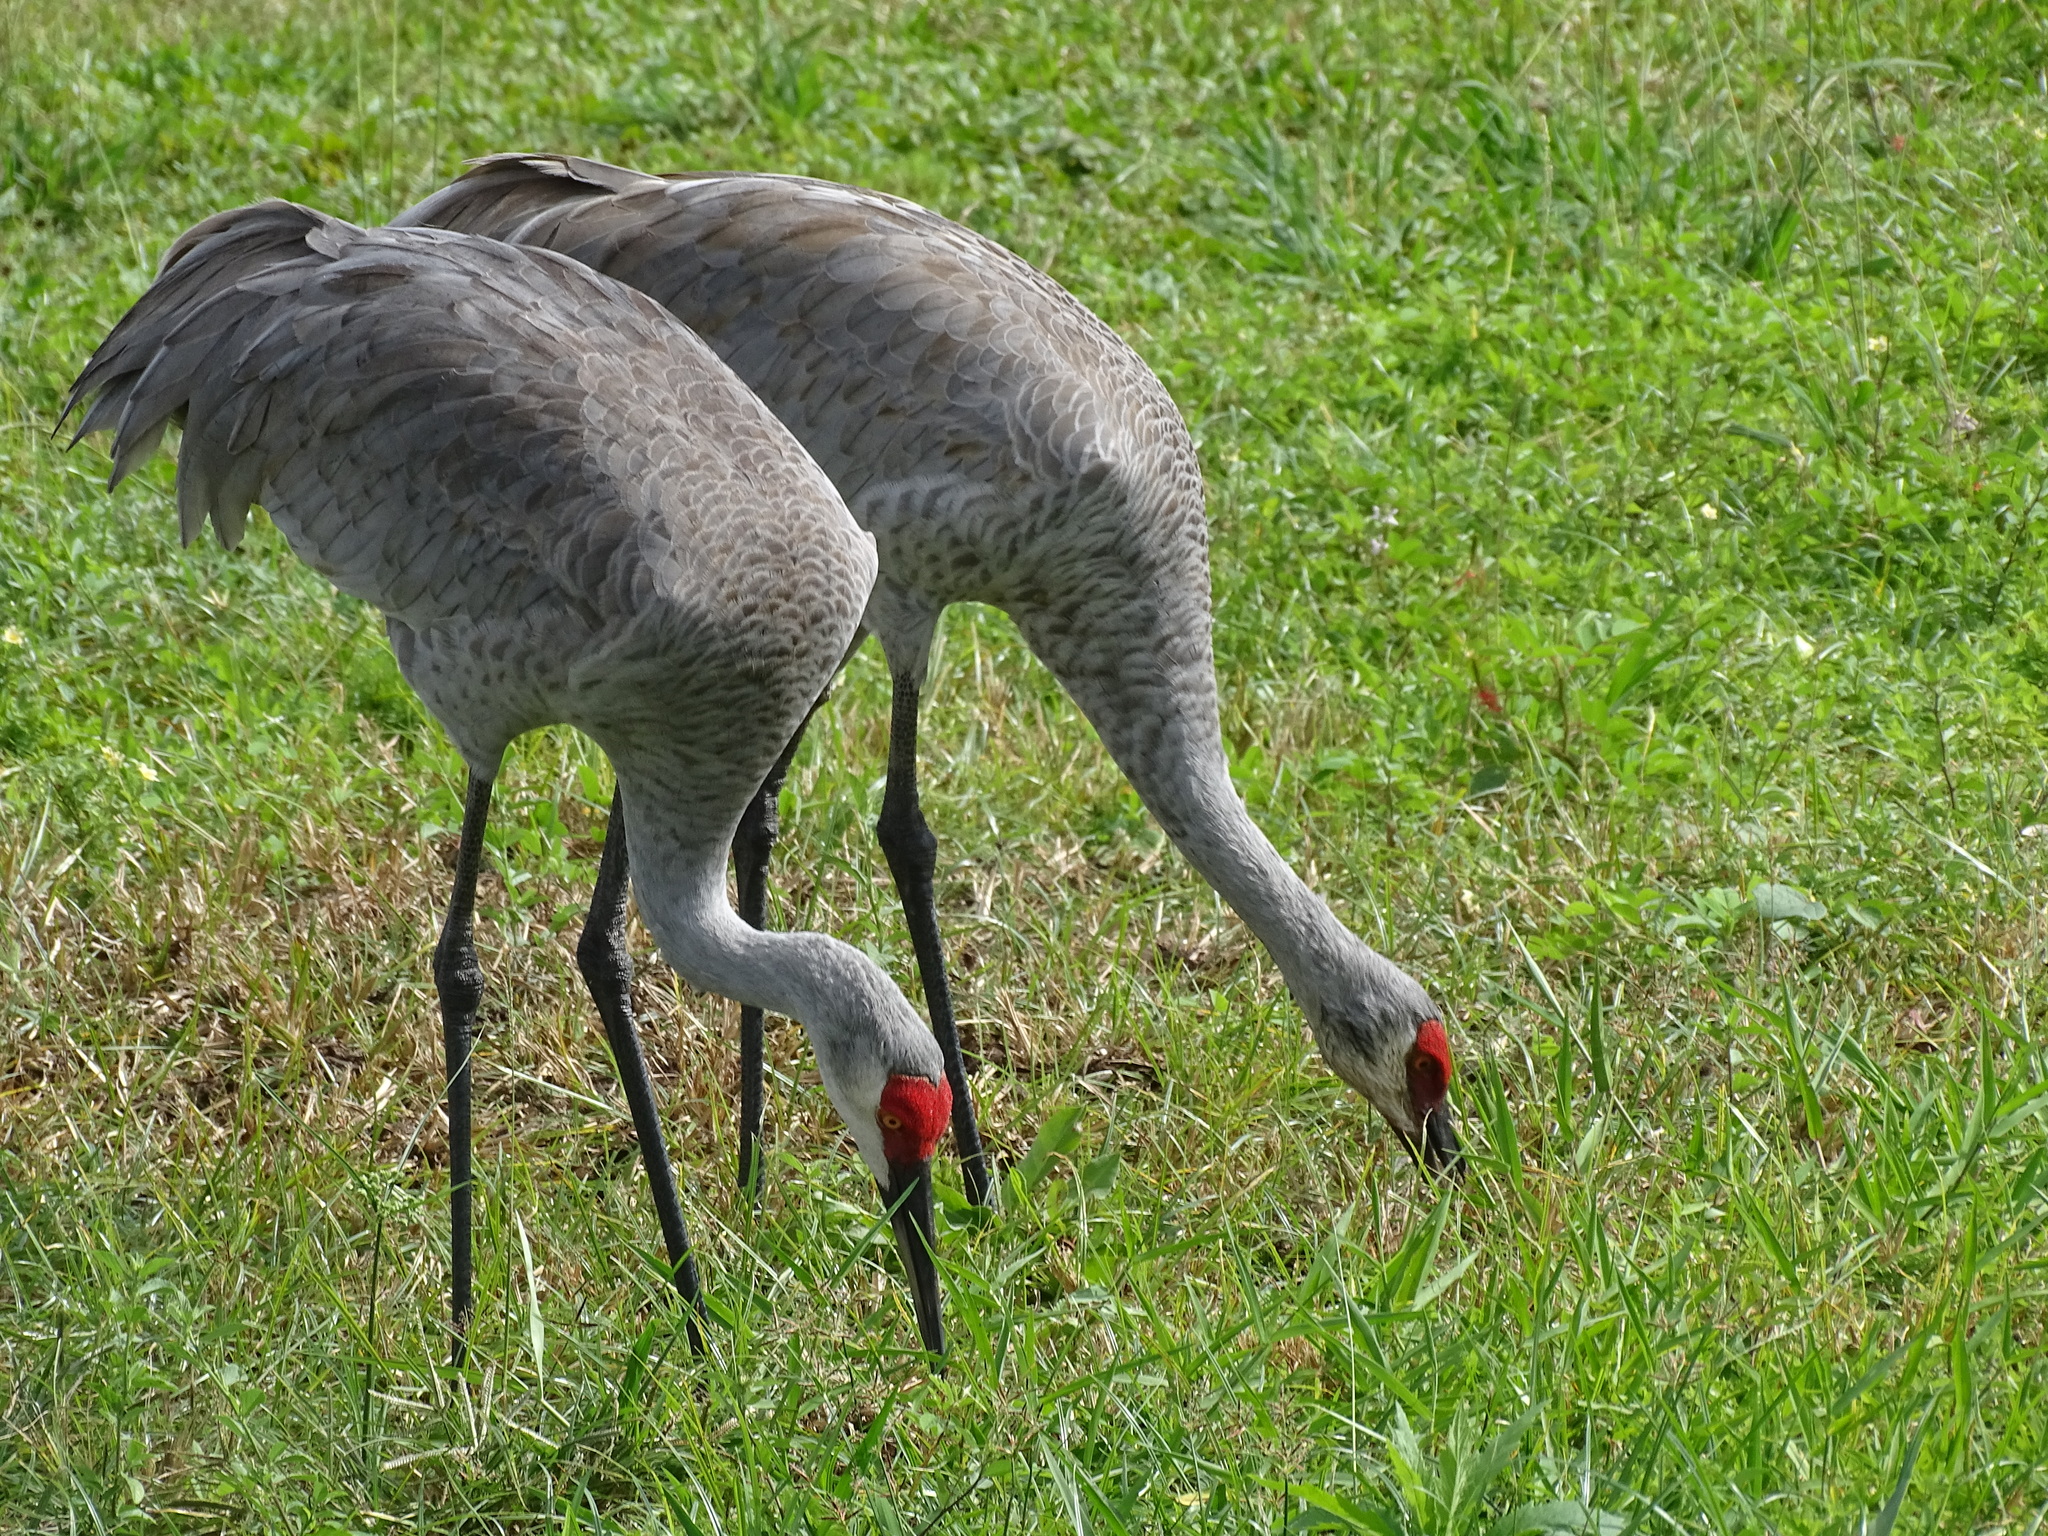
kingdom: Animalia
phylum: Chordata
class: Aves
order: Gruiformes
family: Gruidae
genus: Grus
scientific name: Grus canadensis
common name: Sandhill crane
